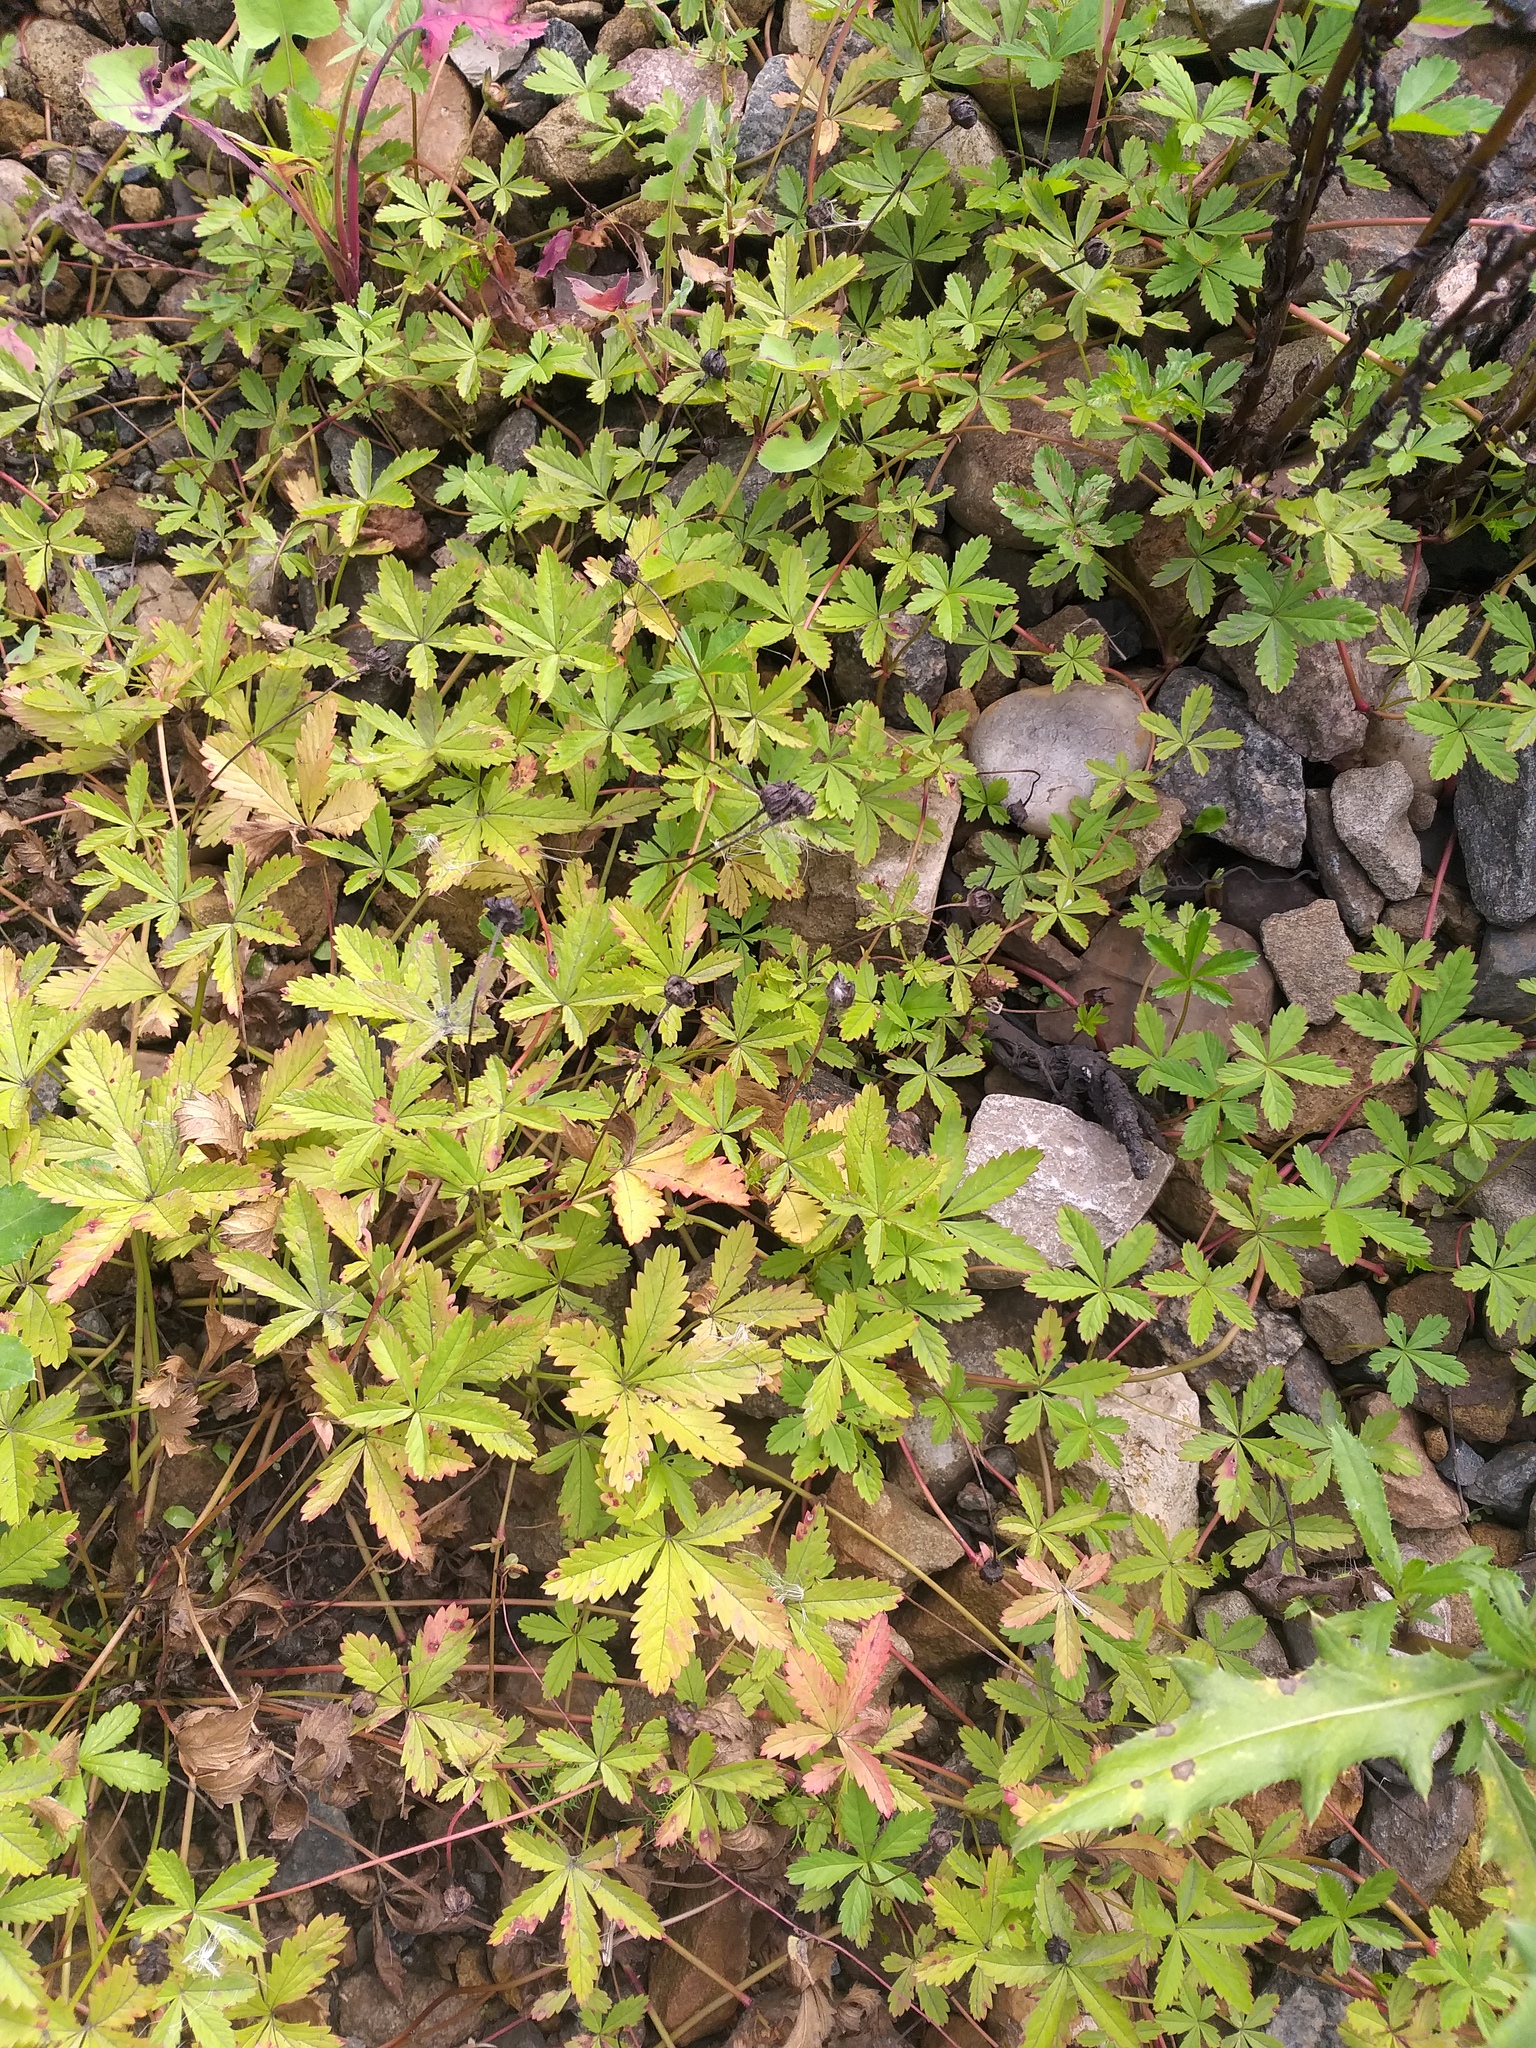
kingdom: Plantae
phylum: Tracheophyta
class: Magnoliopsida
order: Rosales
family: Rosaceae
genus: Potentilla
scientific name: Potentilla reptans
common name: Creeping cinquefoil
